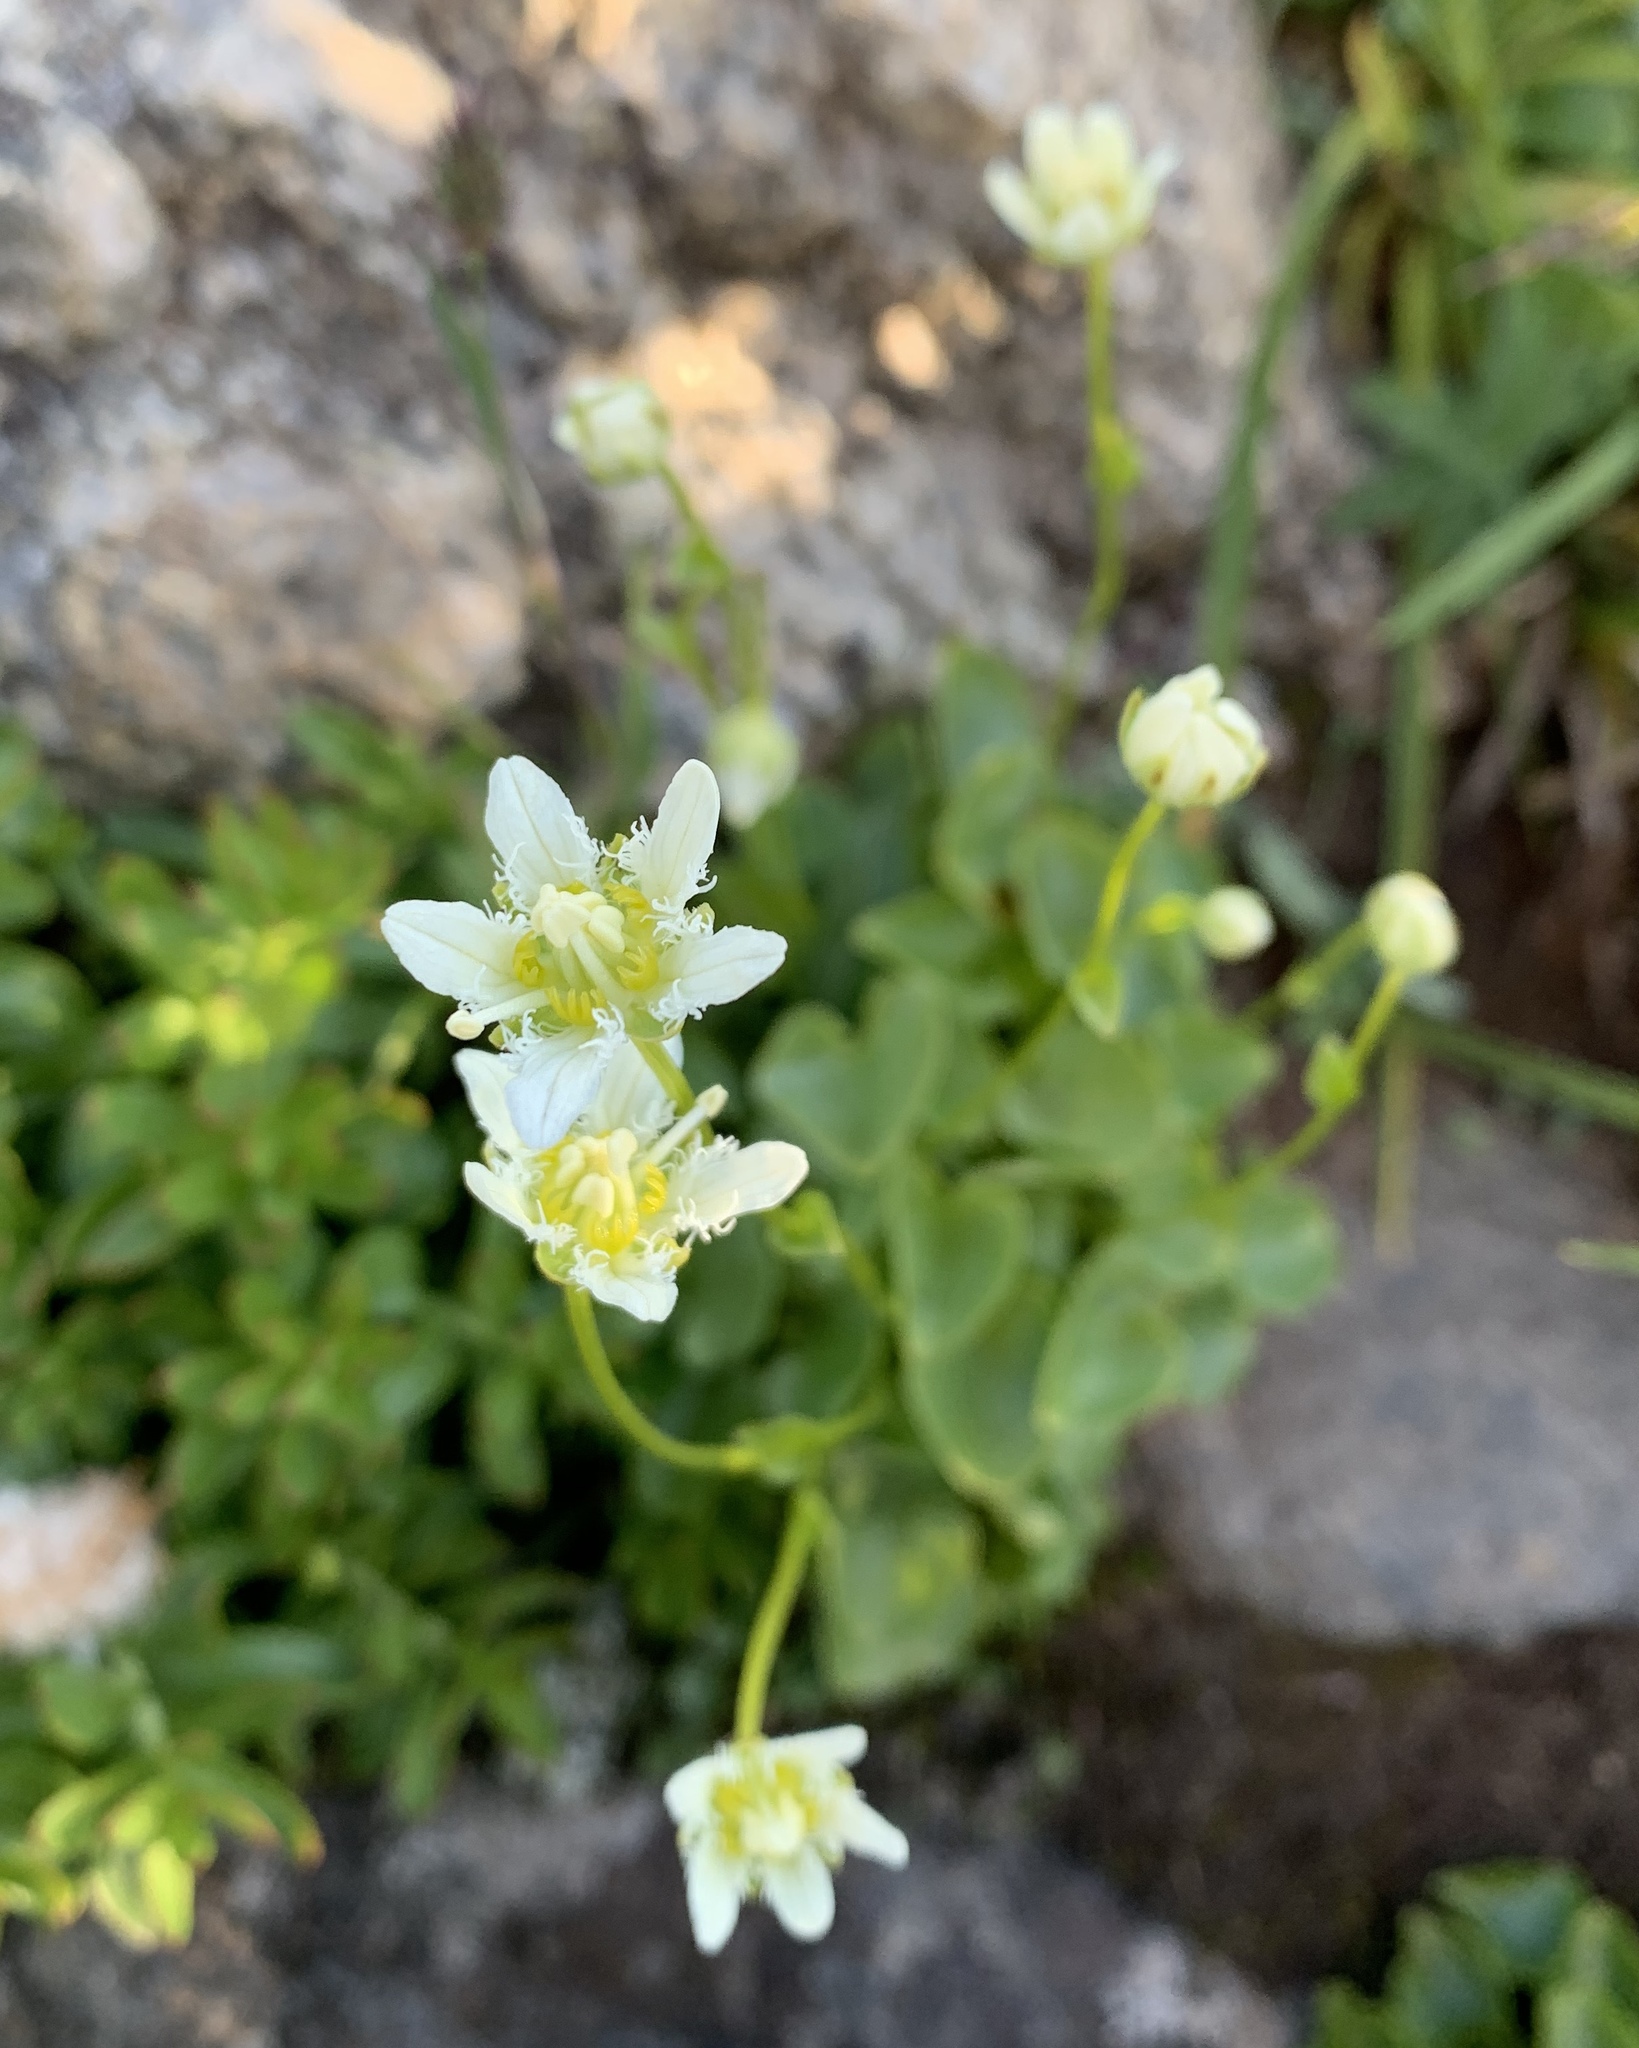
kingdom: Plantae
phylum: Tracheophyta
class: Magnoliopsida
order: Celastrales
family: Parnassiaceae
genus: Parnassia
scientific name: Parnassia fimbriata
